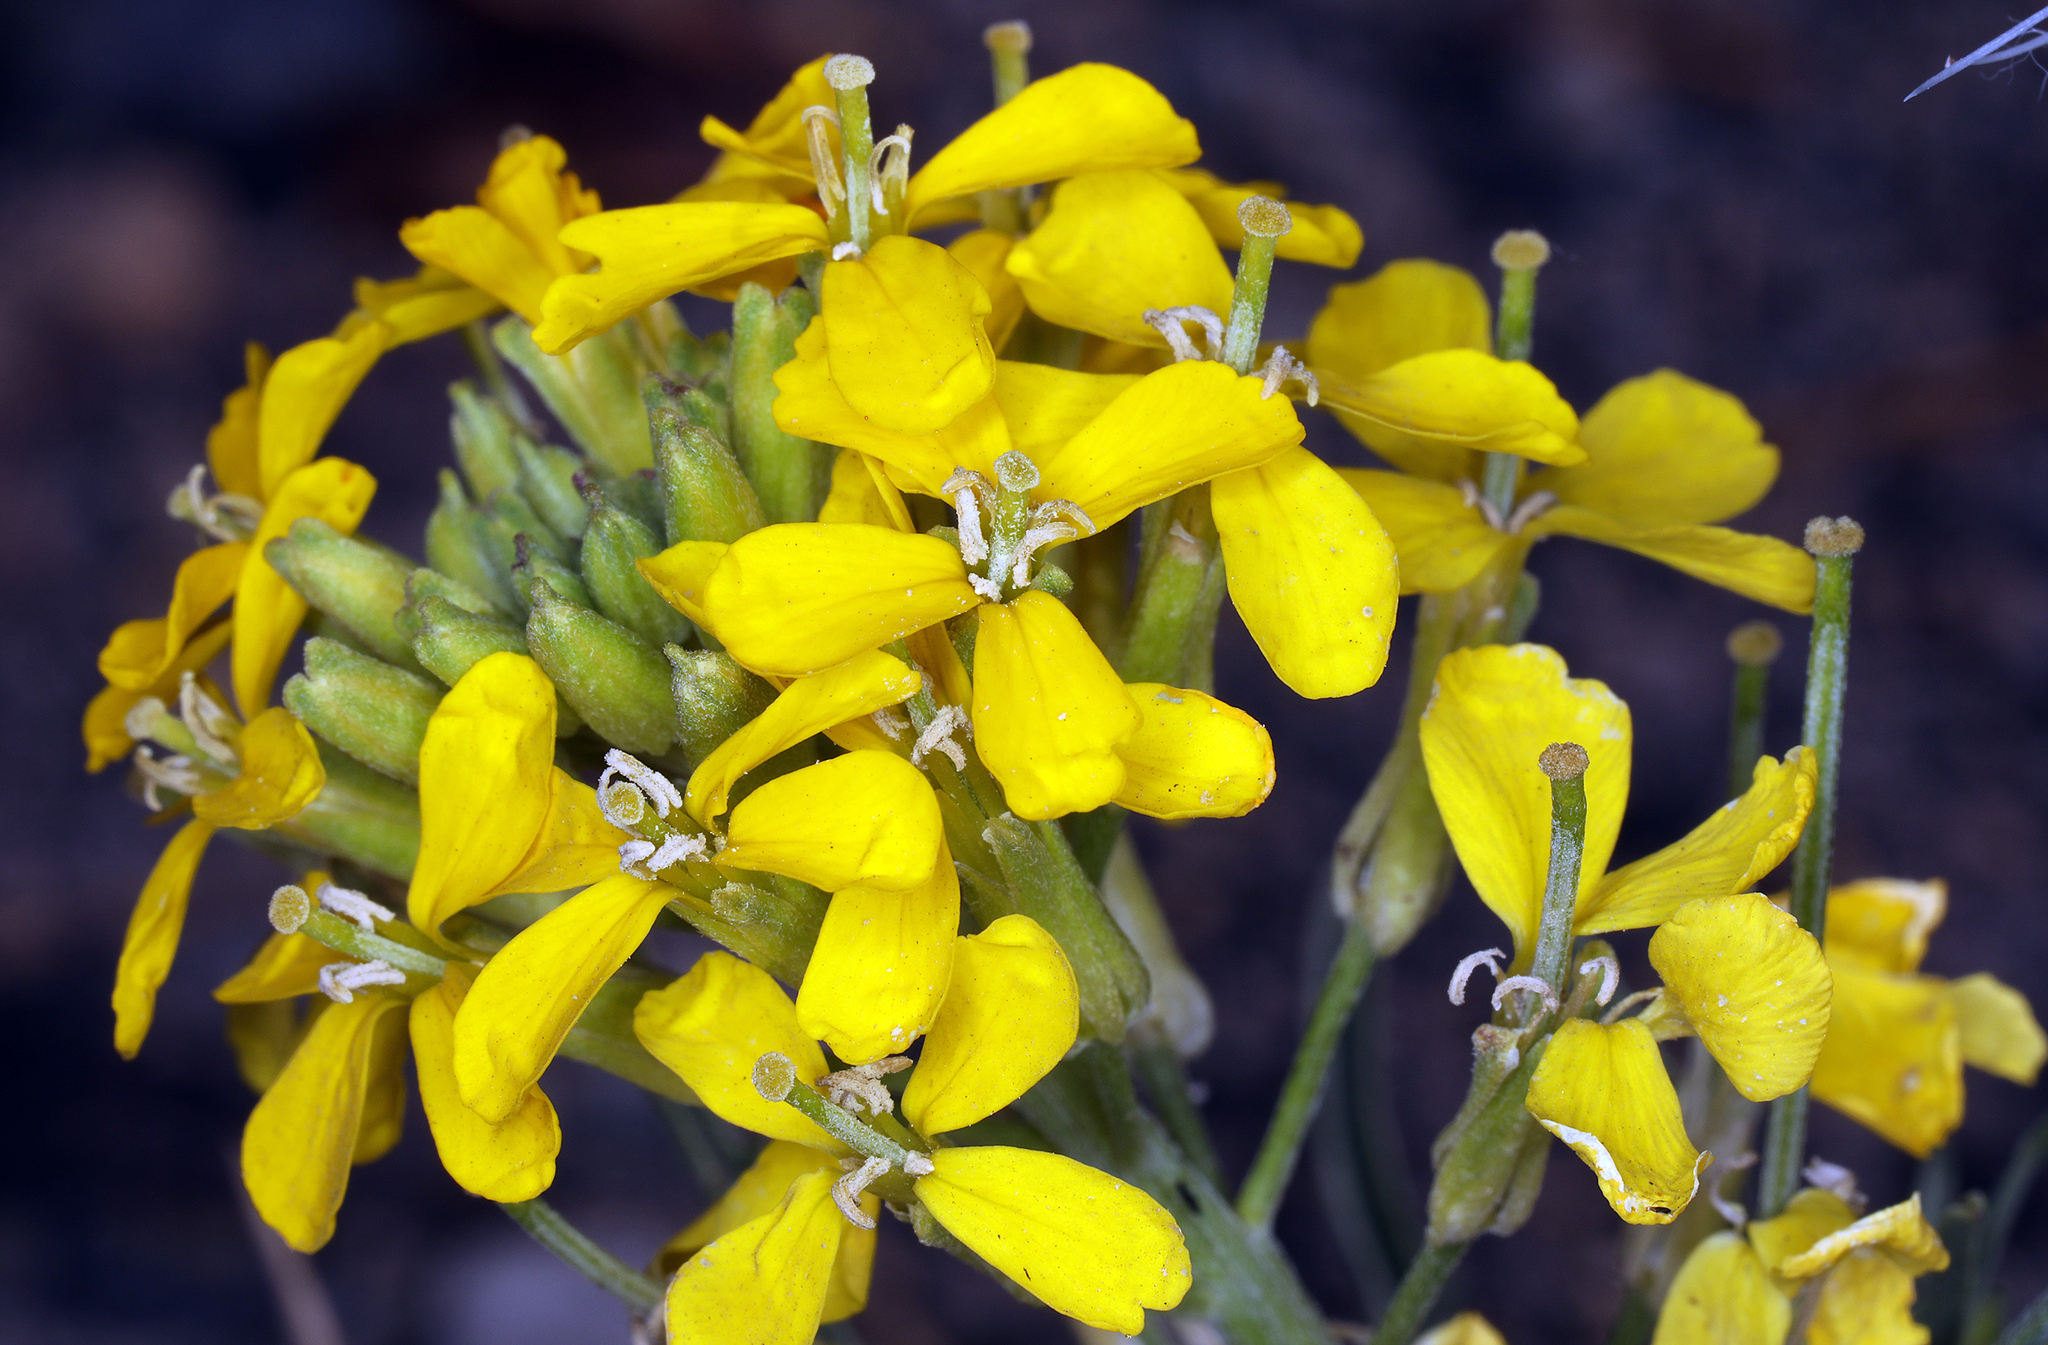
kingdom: Plantae
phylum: Tracheophyta
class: Magnoliopsida
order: Brassicales
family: Brassicaceae
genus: Erysimum
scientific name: Erysimum capitatum
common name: Western wallflower
